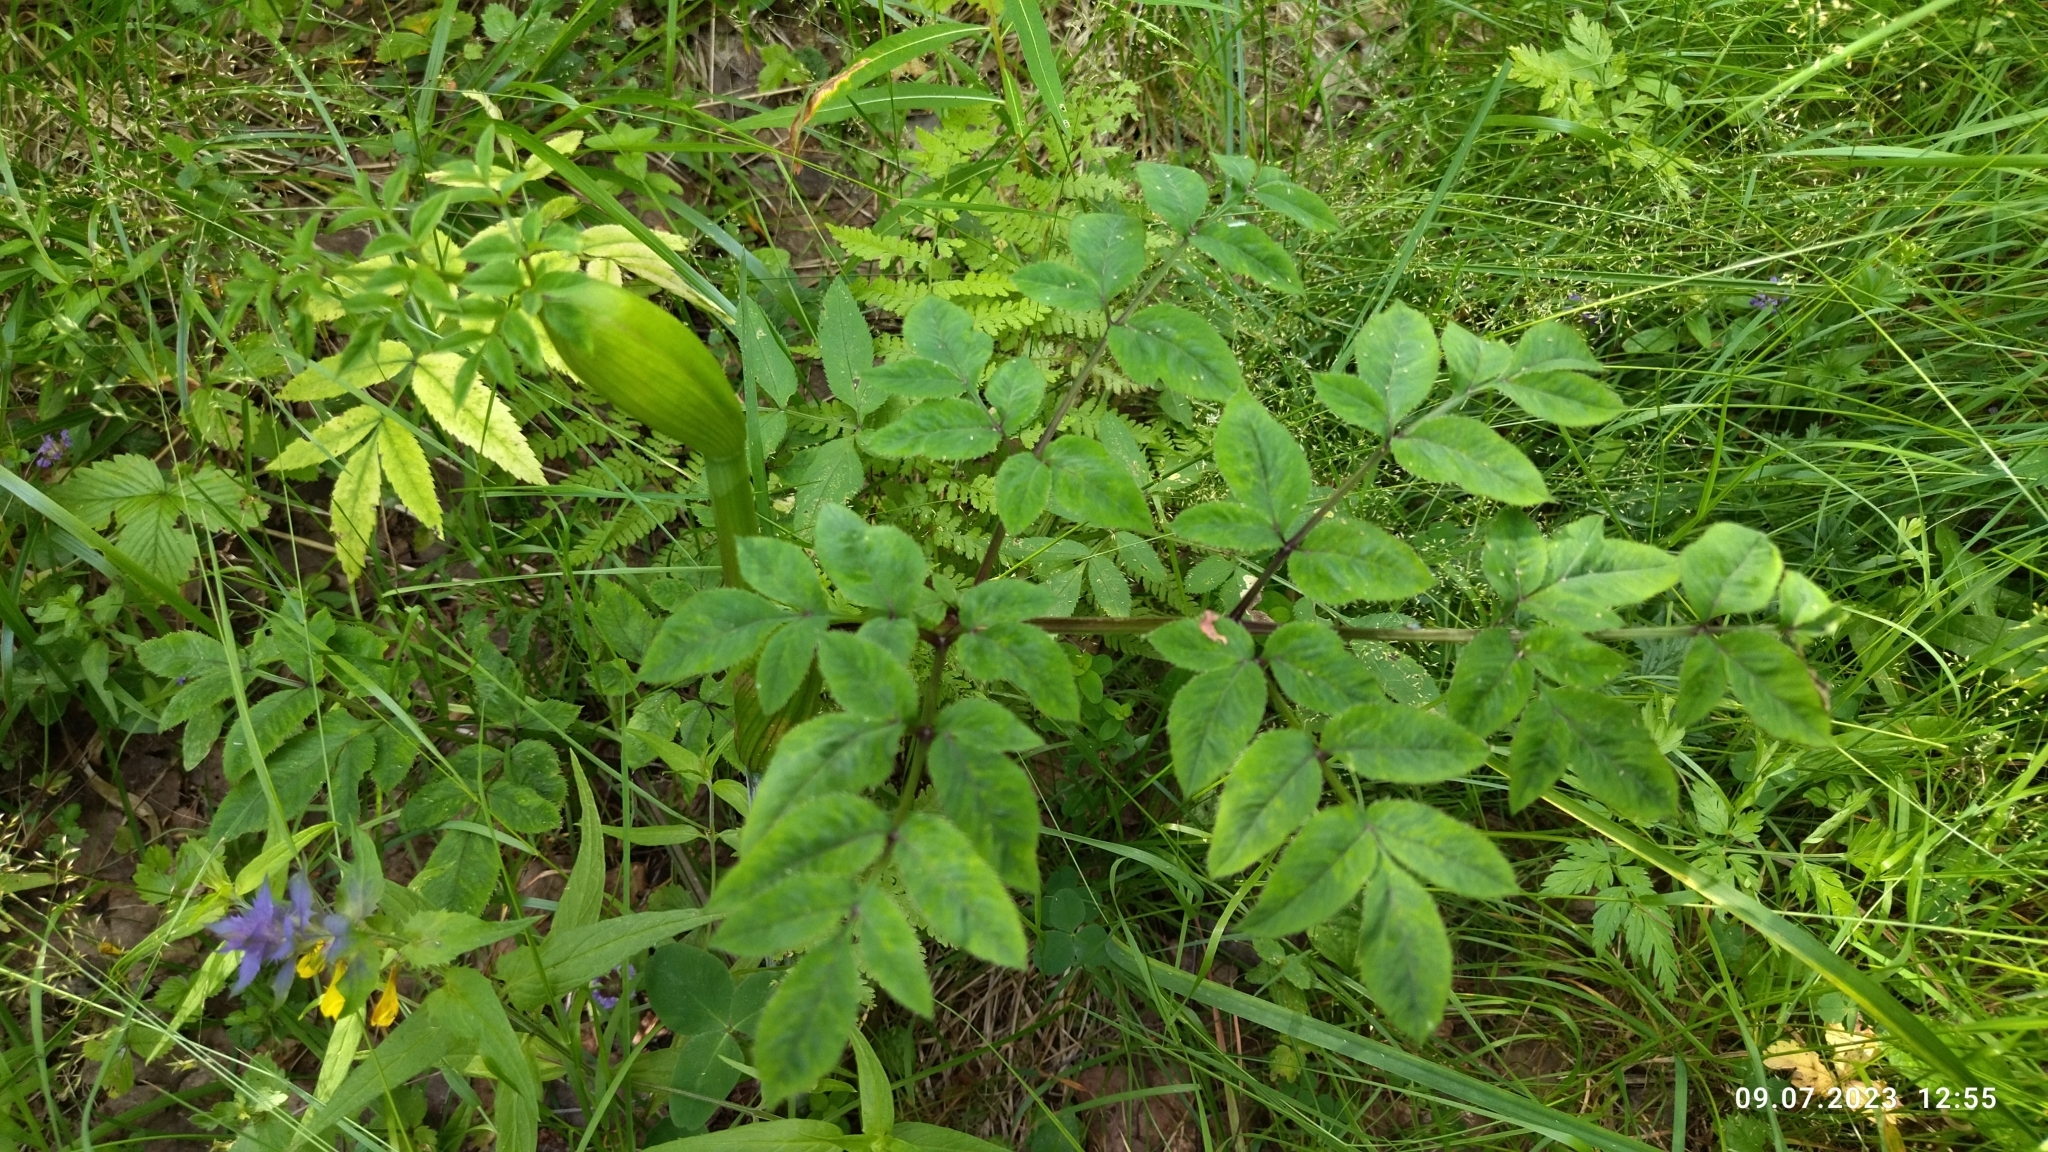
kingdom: Plantae
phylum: Tracheophyta
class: Magnoliopsida
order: Apiales
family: Apiaceae
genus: Angelica
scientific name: Angelica sylvestris
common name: Wild angelica
